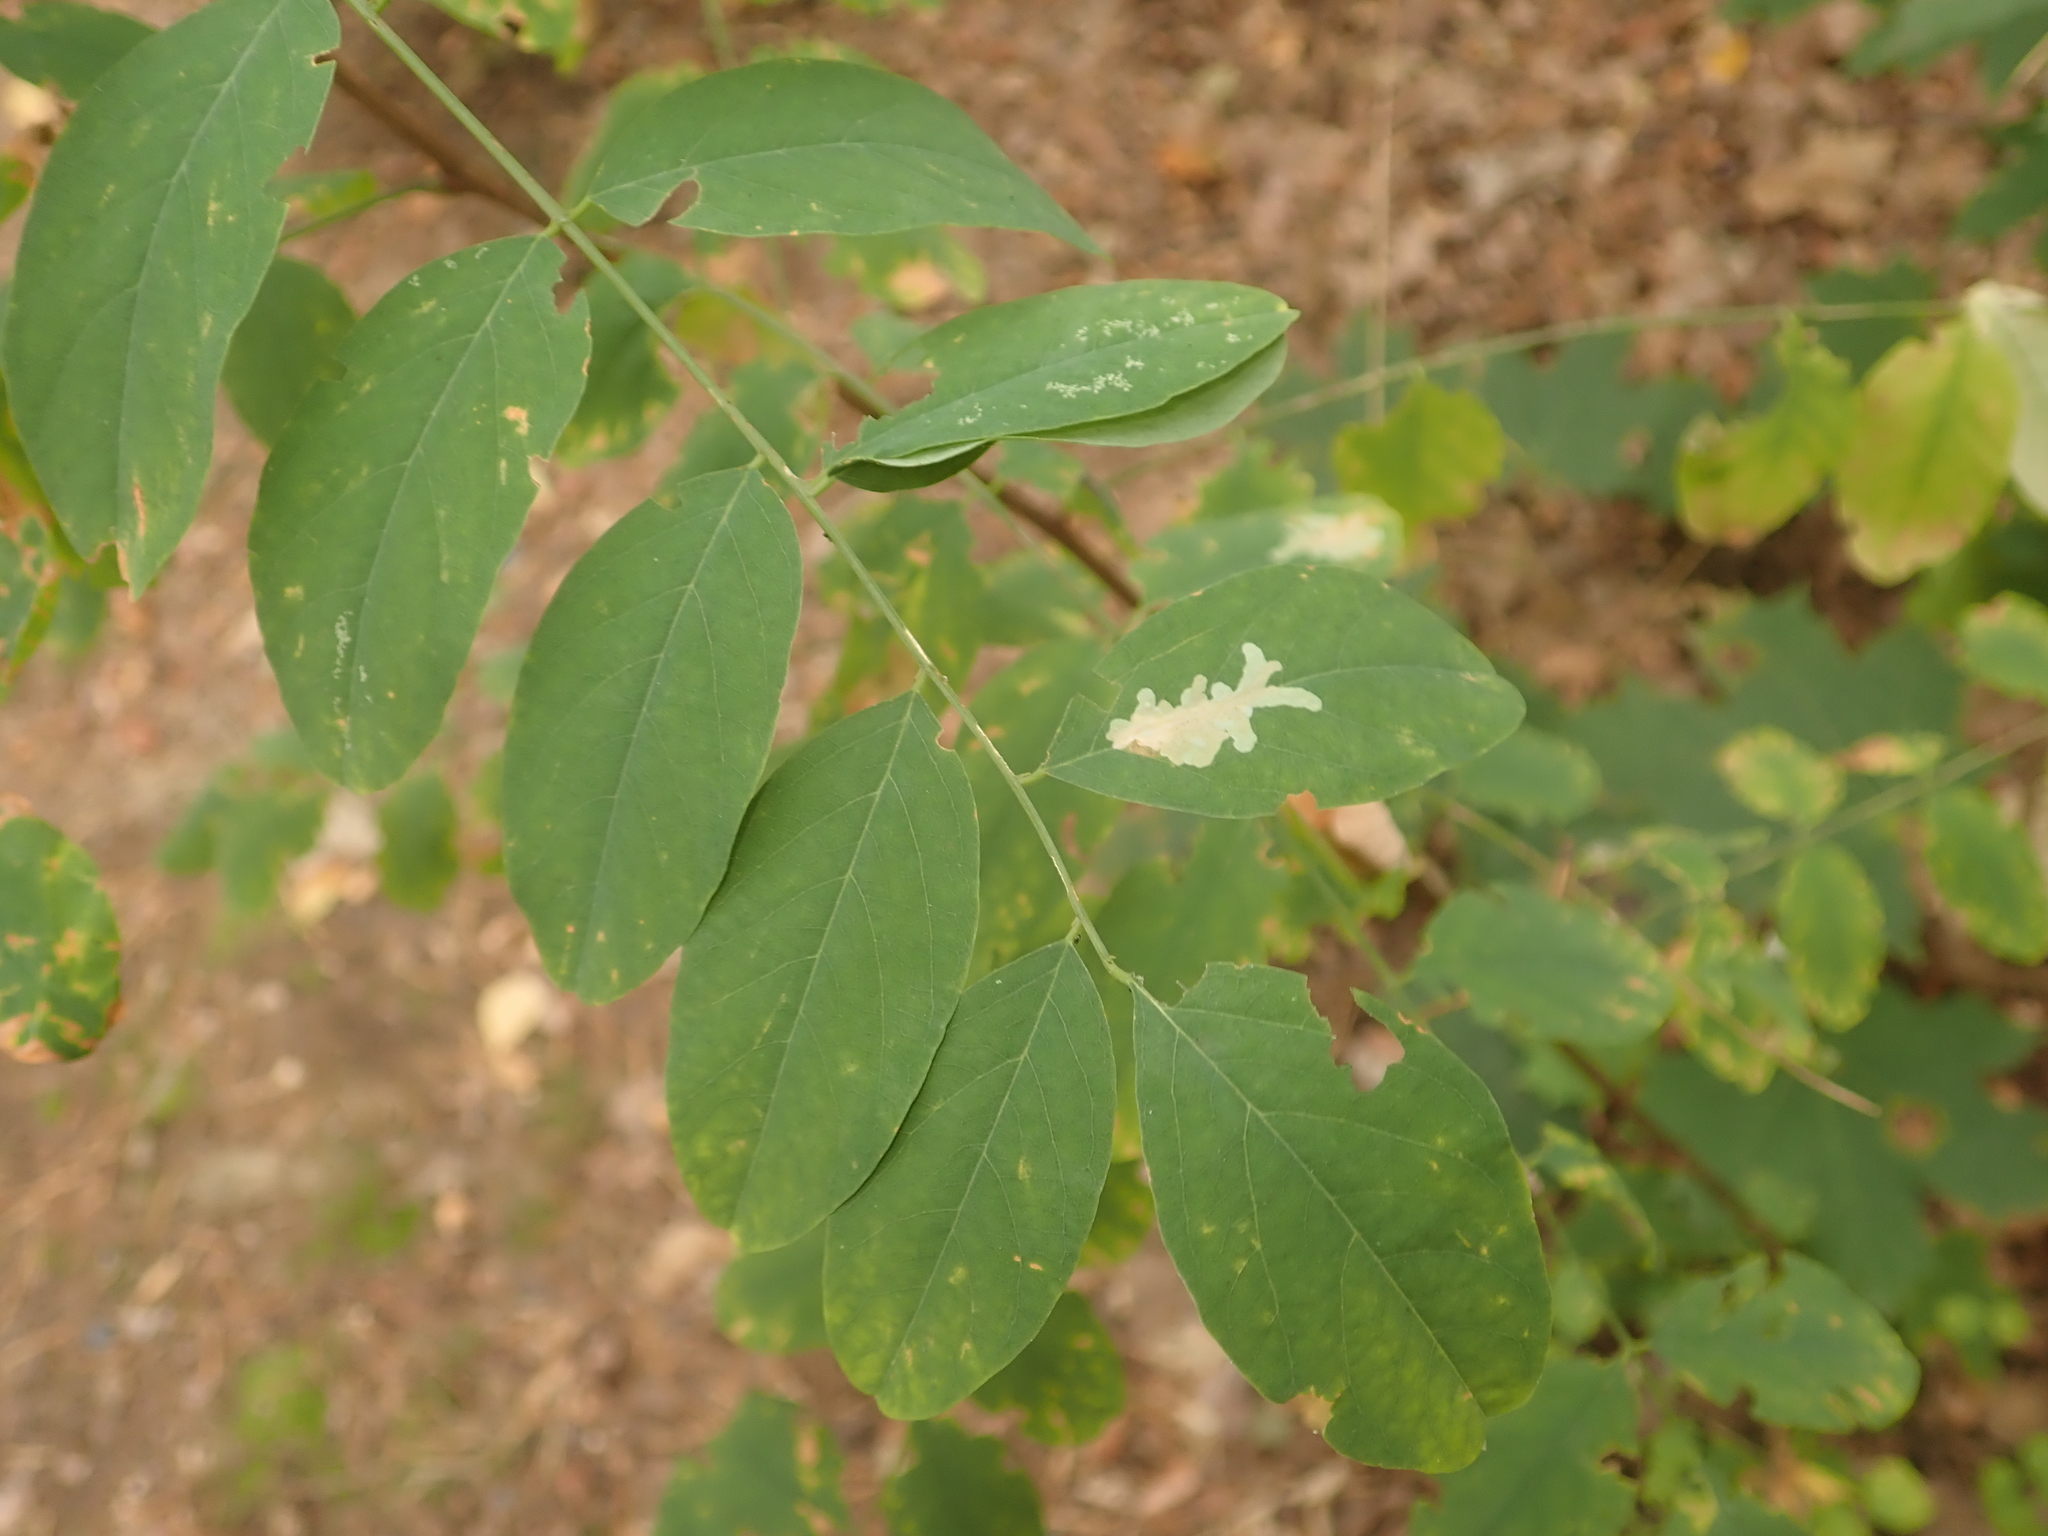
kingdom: Plantae
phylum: Tracheophyta
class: Magnoliopsida
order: Fabales
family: Fabaceae
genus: Robinia
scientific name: Robinia pseudoacacia
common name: Black locust
